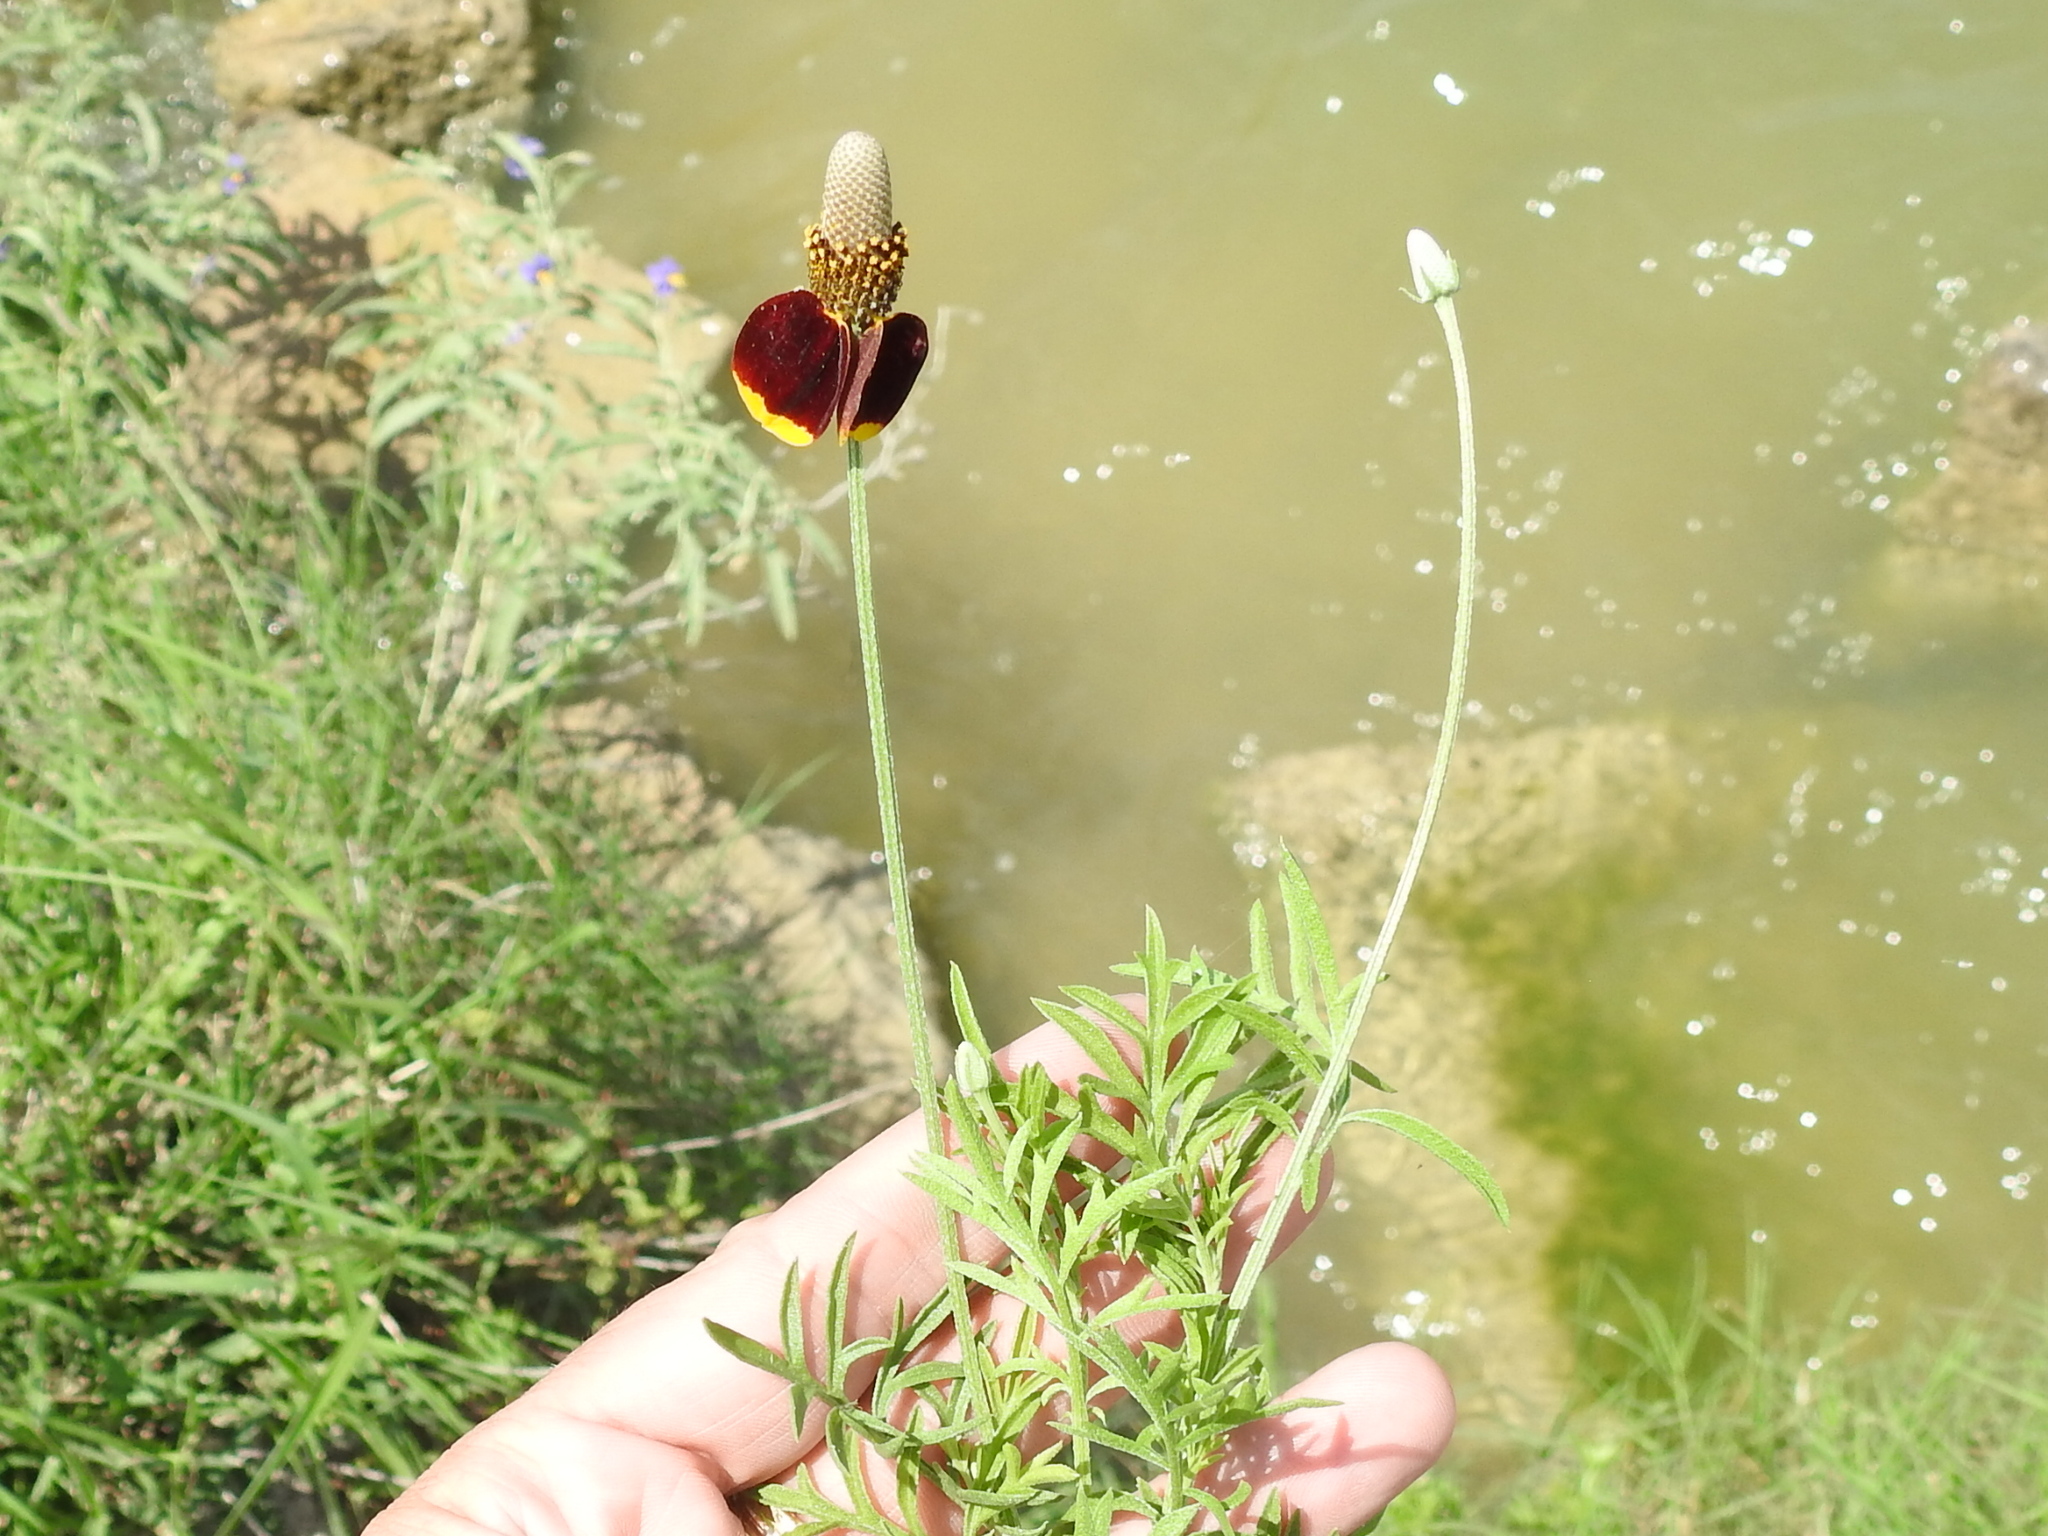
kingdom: Plantae
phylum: Tracheophyta
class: Magnoliopsida
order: Asterales
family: Asteraceae
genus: Ratibida
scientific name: Ratibida columnifera
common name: Prairie coneflower
